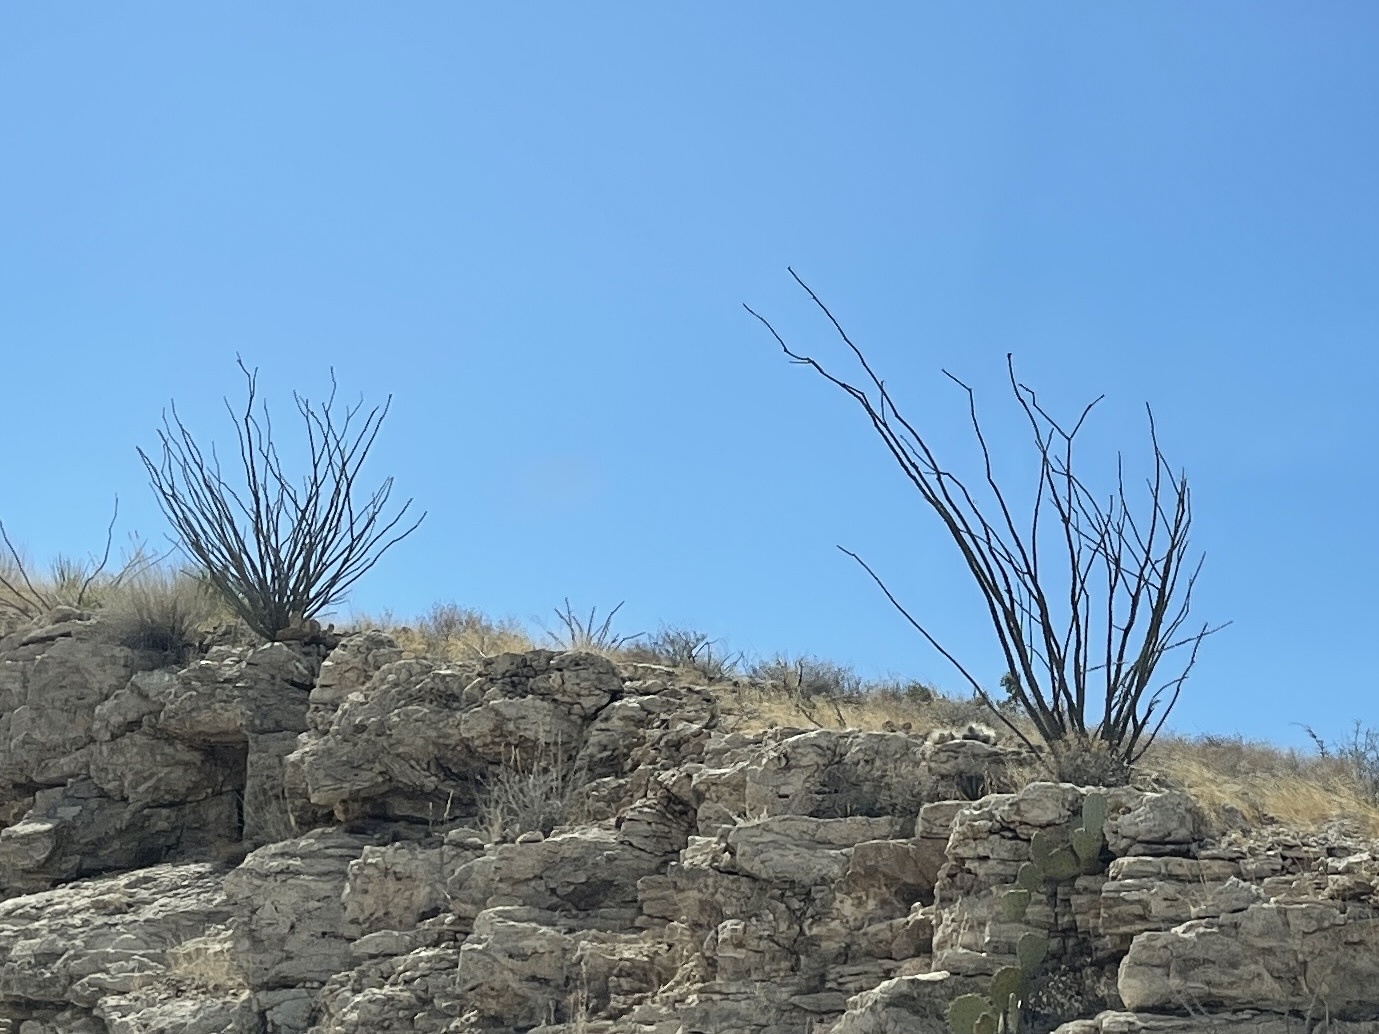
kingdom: Plantae
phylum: Tracheophyta
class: Magnoliopsida
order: Ericales
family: Fouquieriaceae
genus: Fouquieria
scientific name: Fouquieria splendens
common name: Vine-cactus
